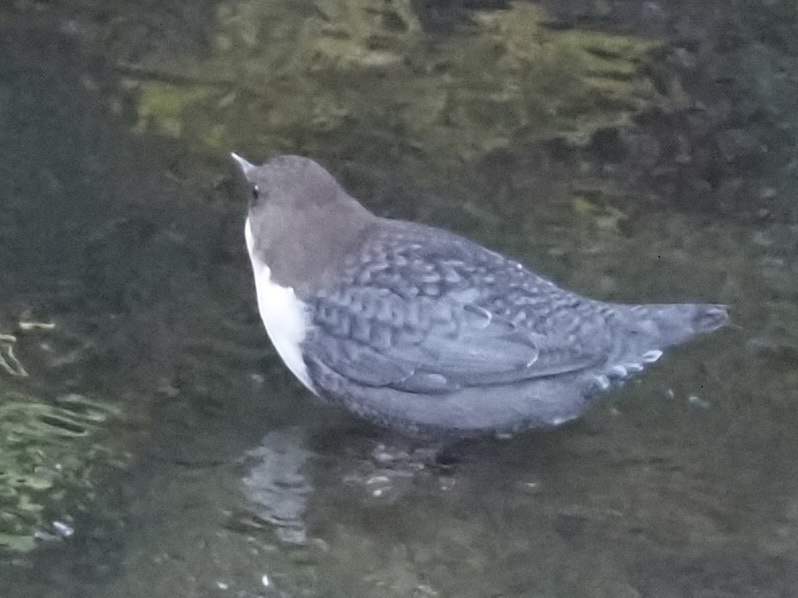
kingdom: Animalia
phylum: Chordata
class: Aves
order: Passeriformes
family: Cinclidae
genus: Cinclus
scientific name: Cinclus cinclus
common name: White-throated dipper
